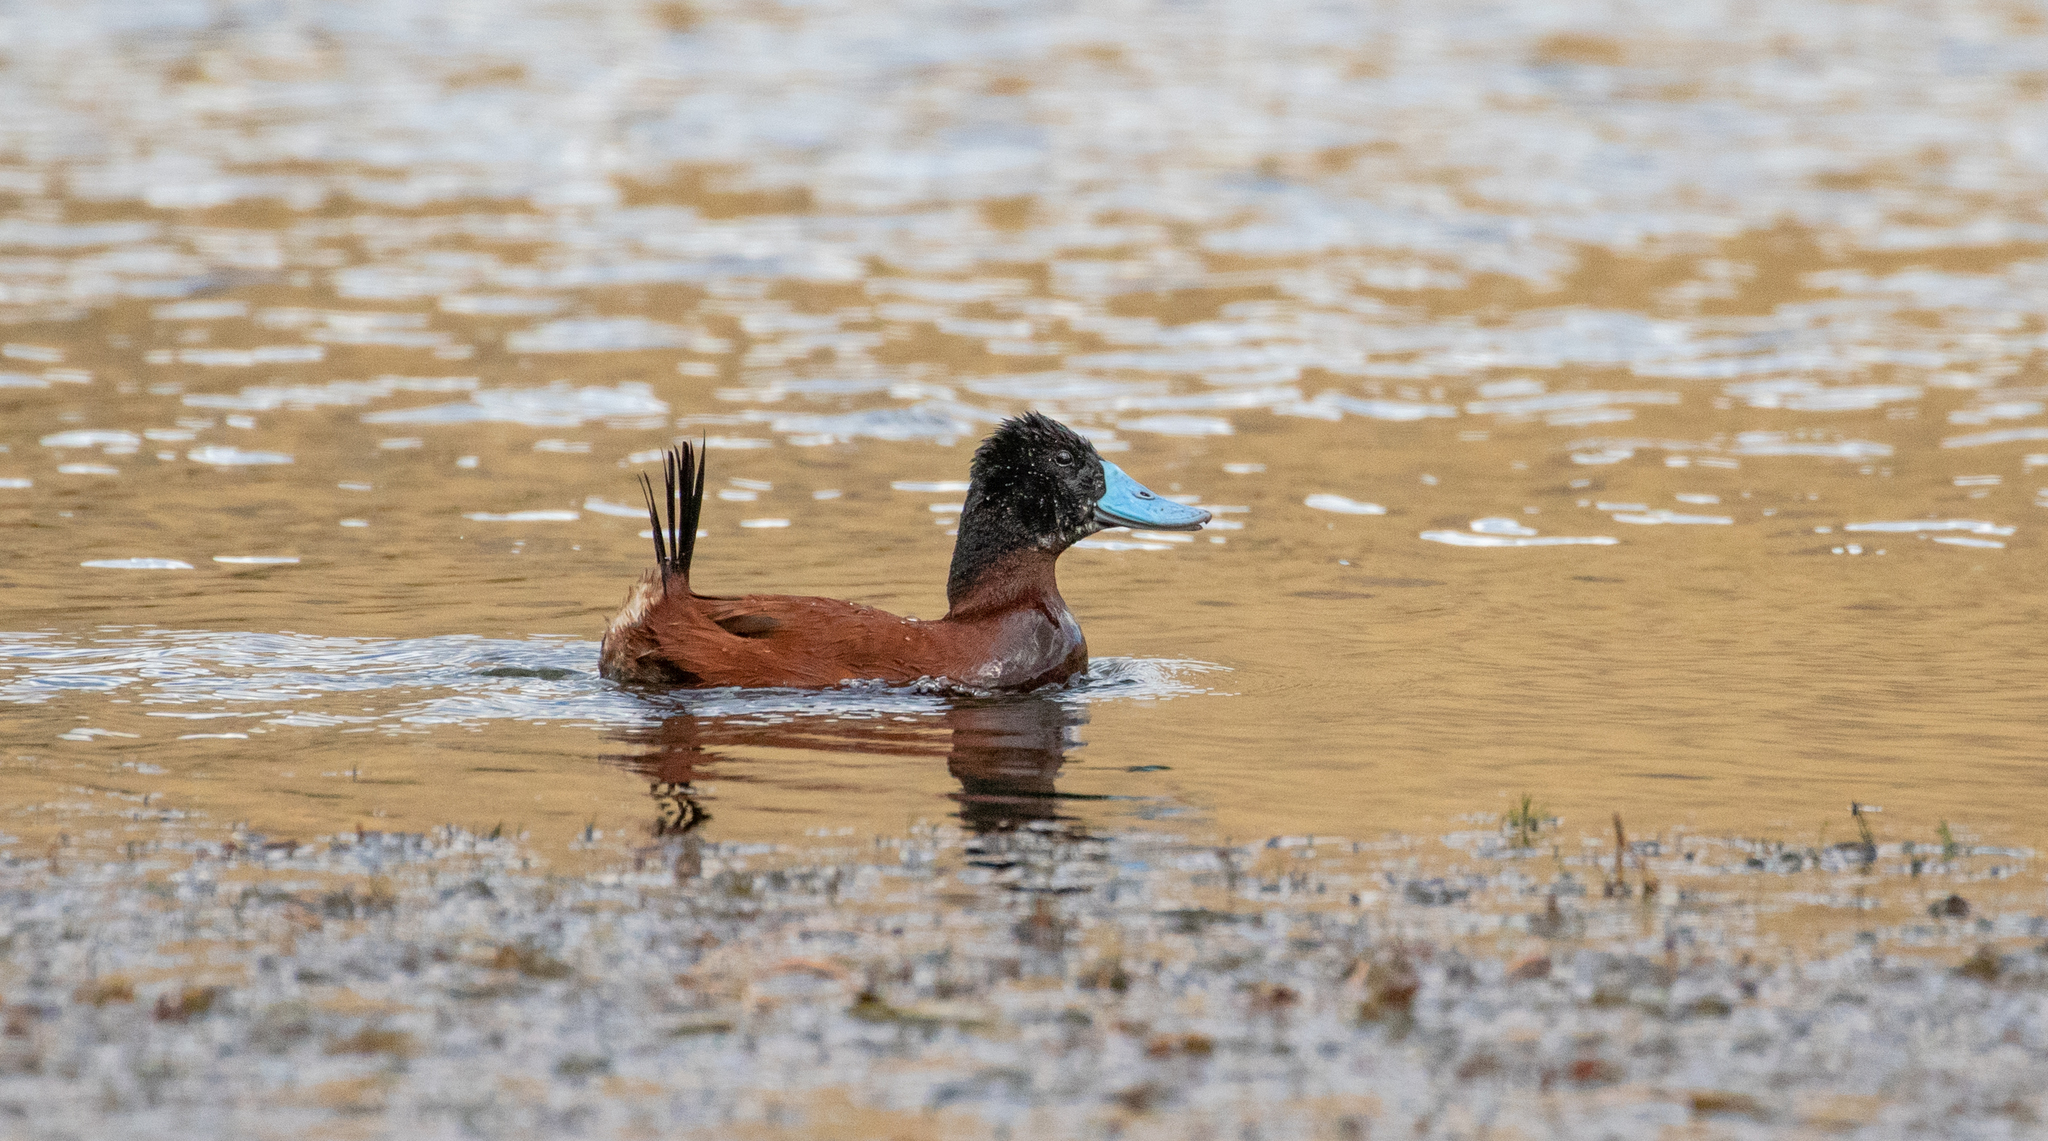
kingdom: Animalia
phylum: Chordata
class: Aves
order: Anseriformes
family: Anatidae
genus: Oxyura
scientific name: Oxyura ferruginea
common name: Andean duck
